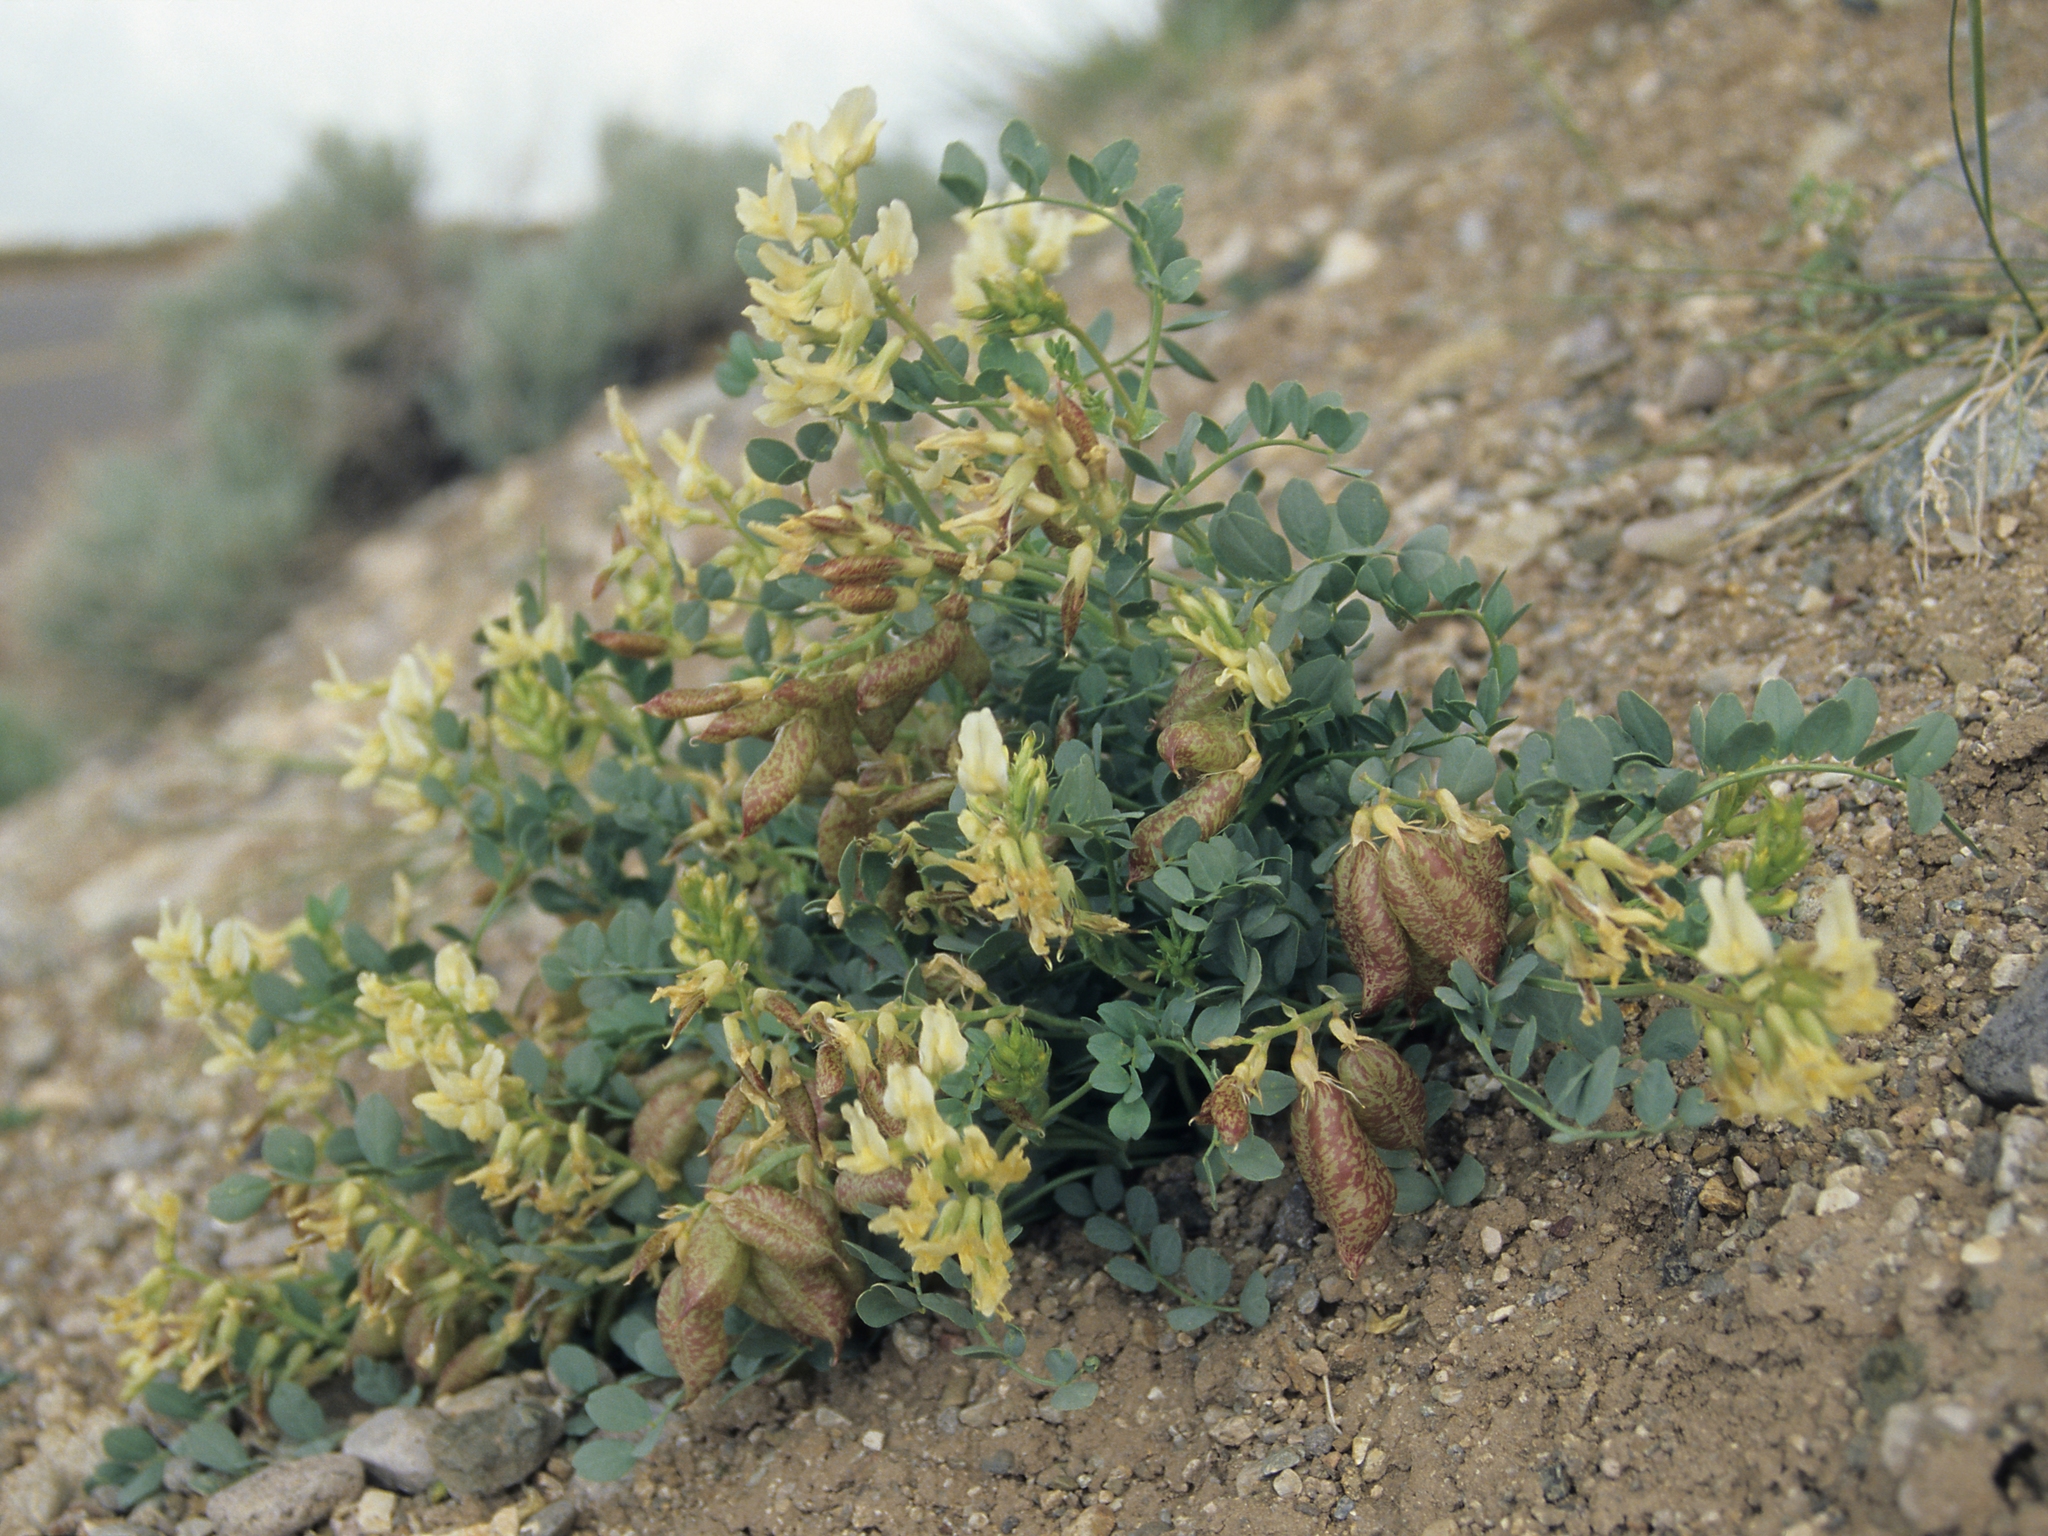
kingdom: Plantae
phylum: Tracheophyta
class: Magnoliopsida
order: Fabales
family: Fabaceae
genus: Astragalus
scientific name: Astragalus oophorus
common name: Egg milkvetch
